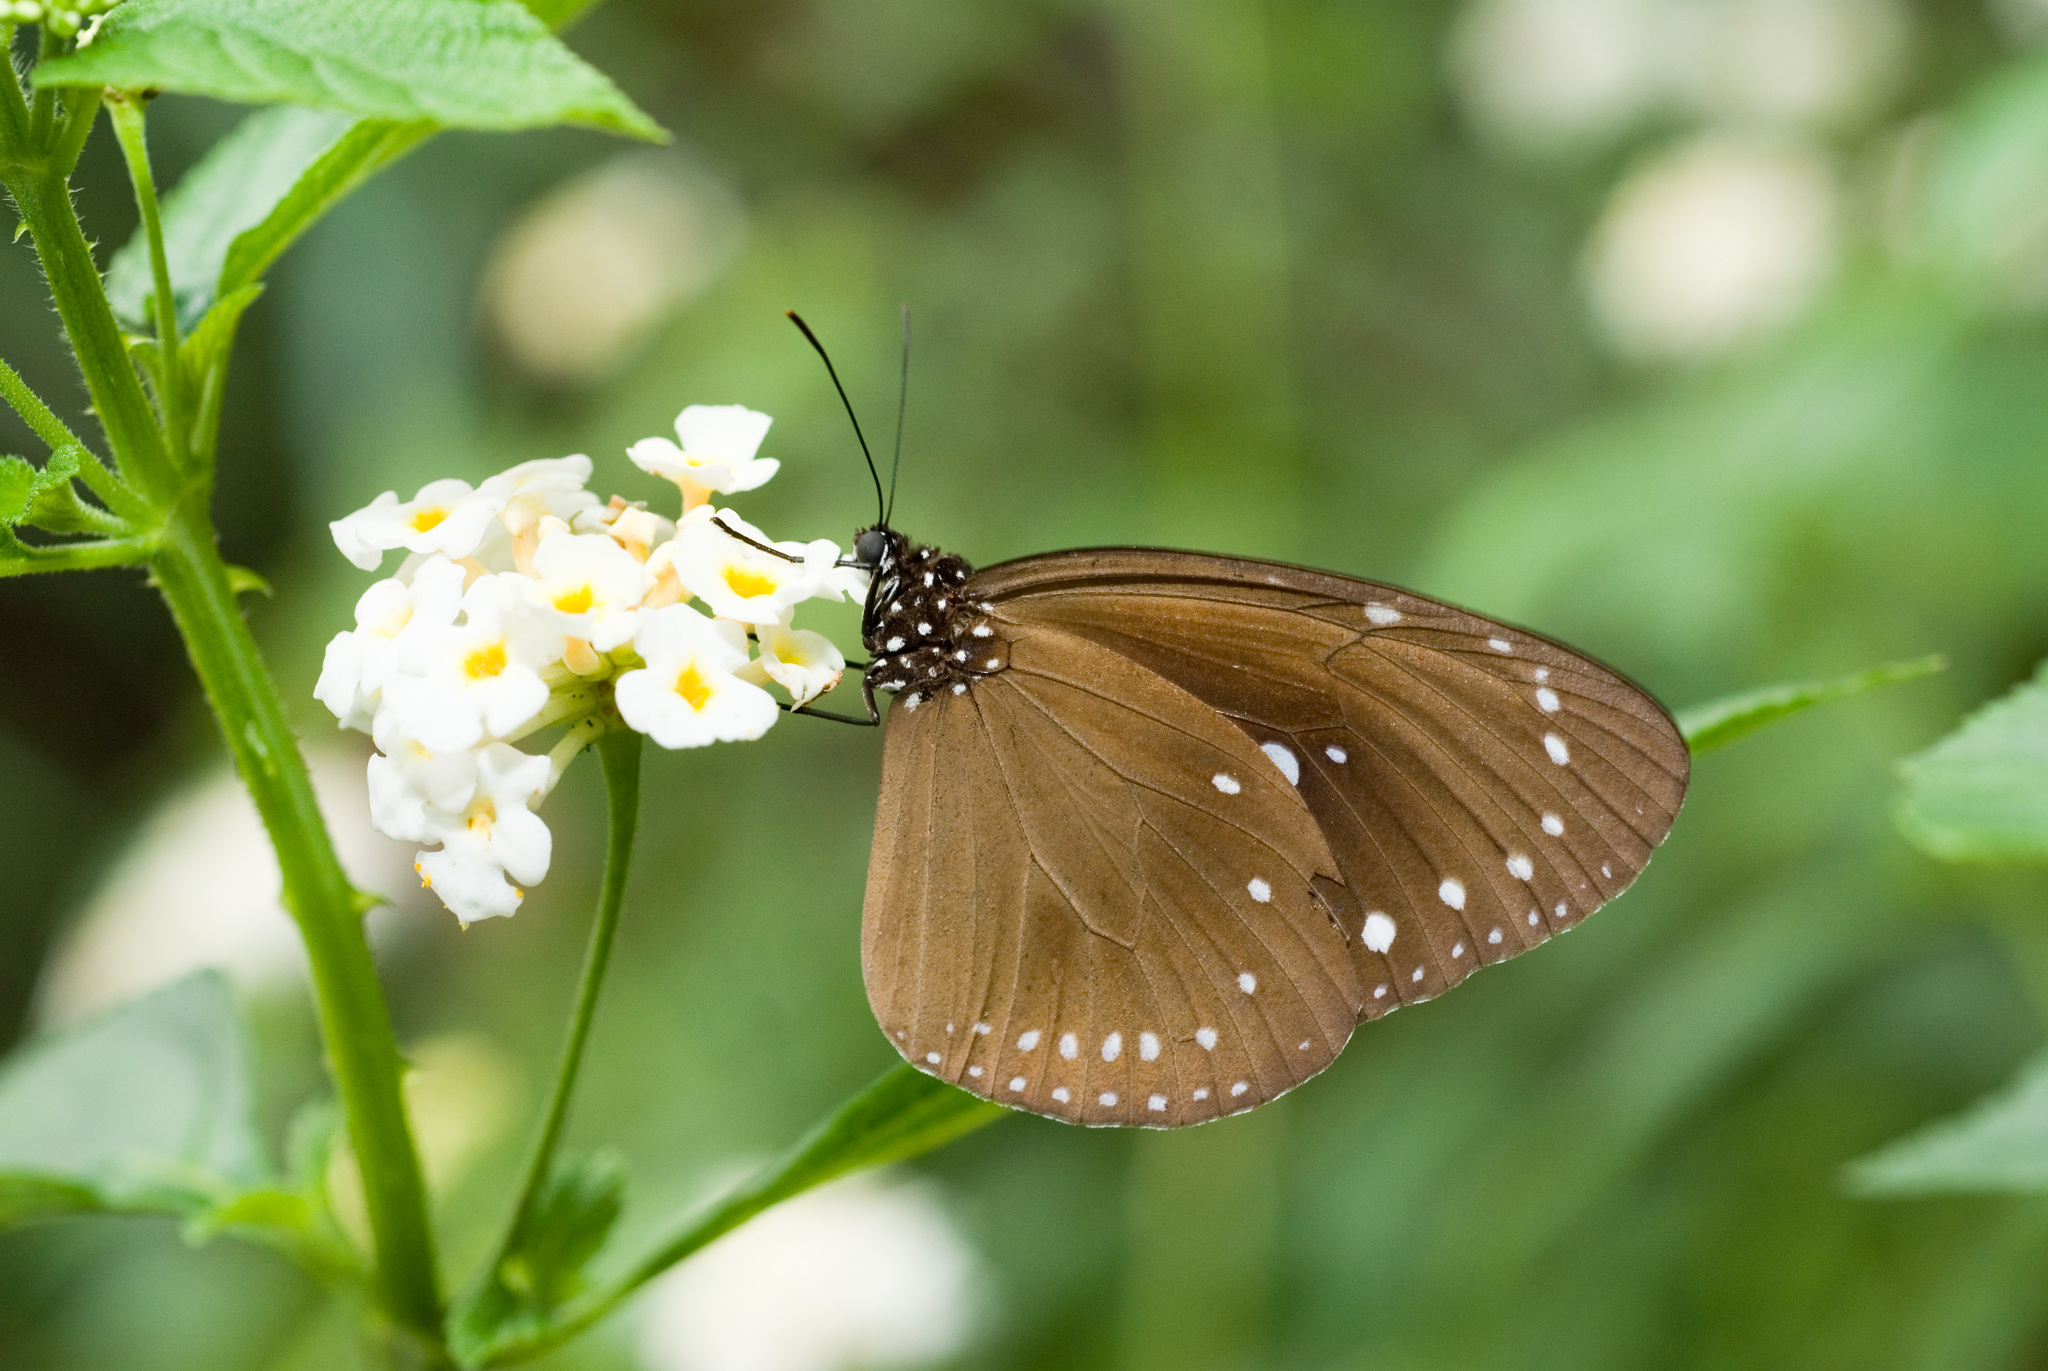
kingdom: Animalia
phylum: Arthropoda
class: Insecta
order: Lepidoptera
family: Nymphalidae
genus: Euploea
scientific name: Euploea tulliolus
